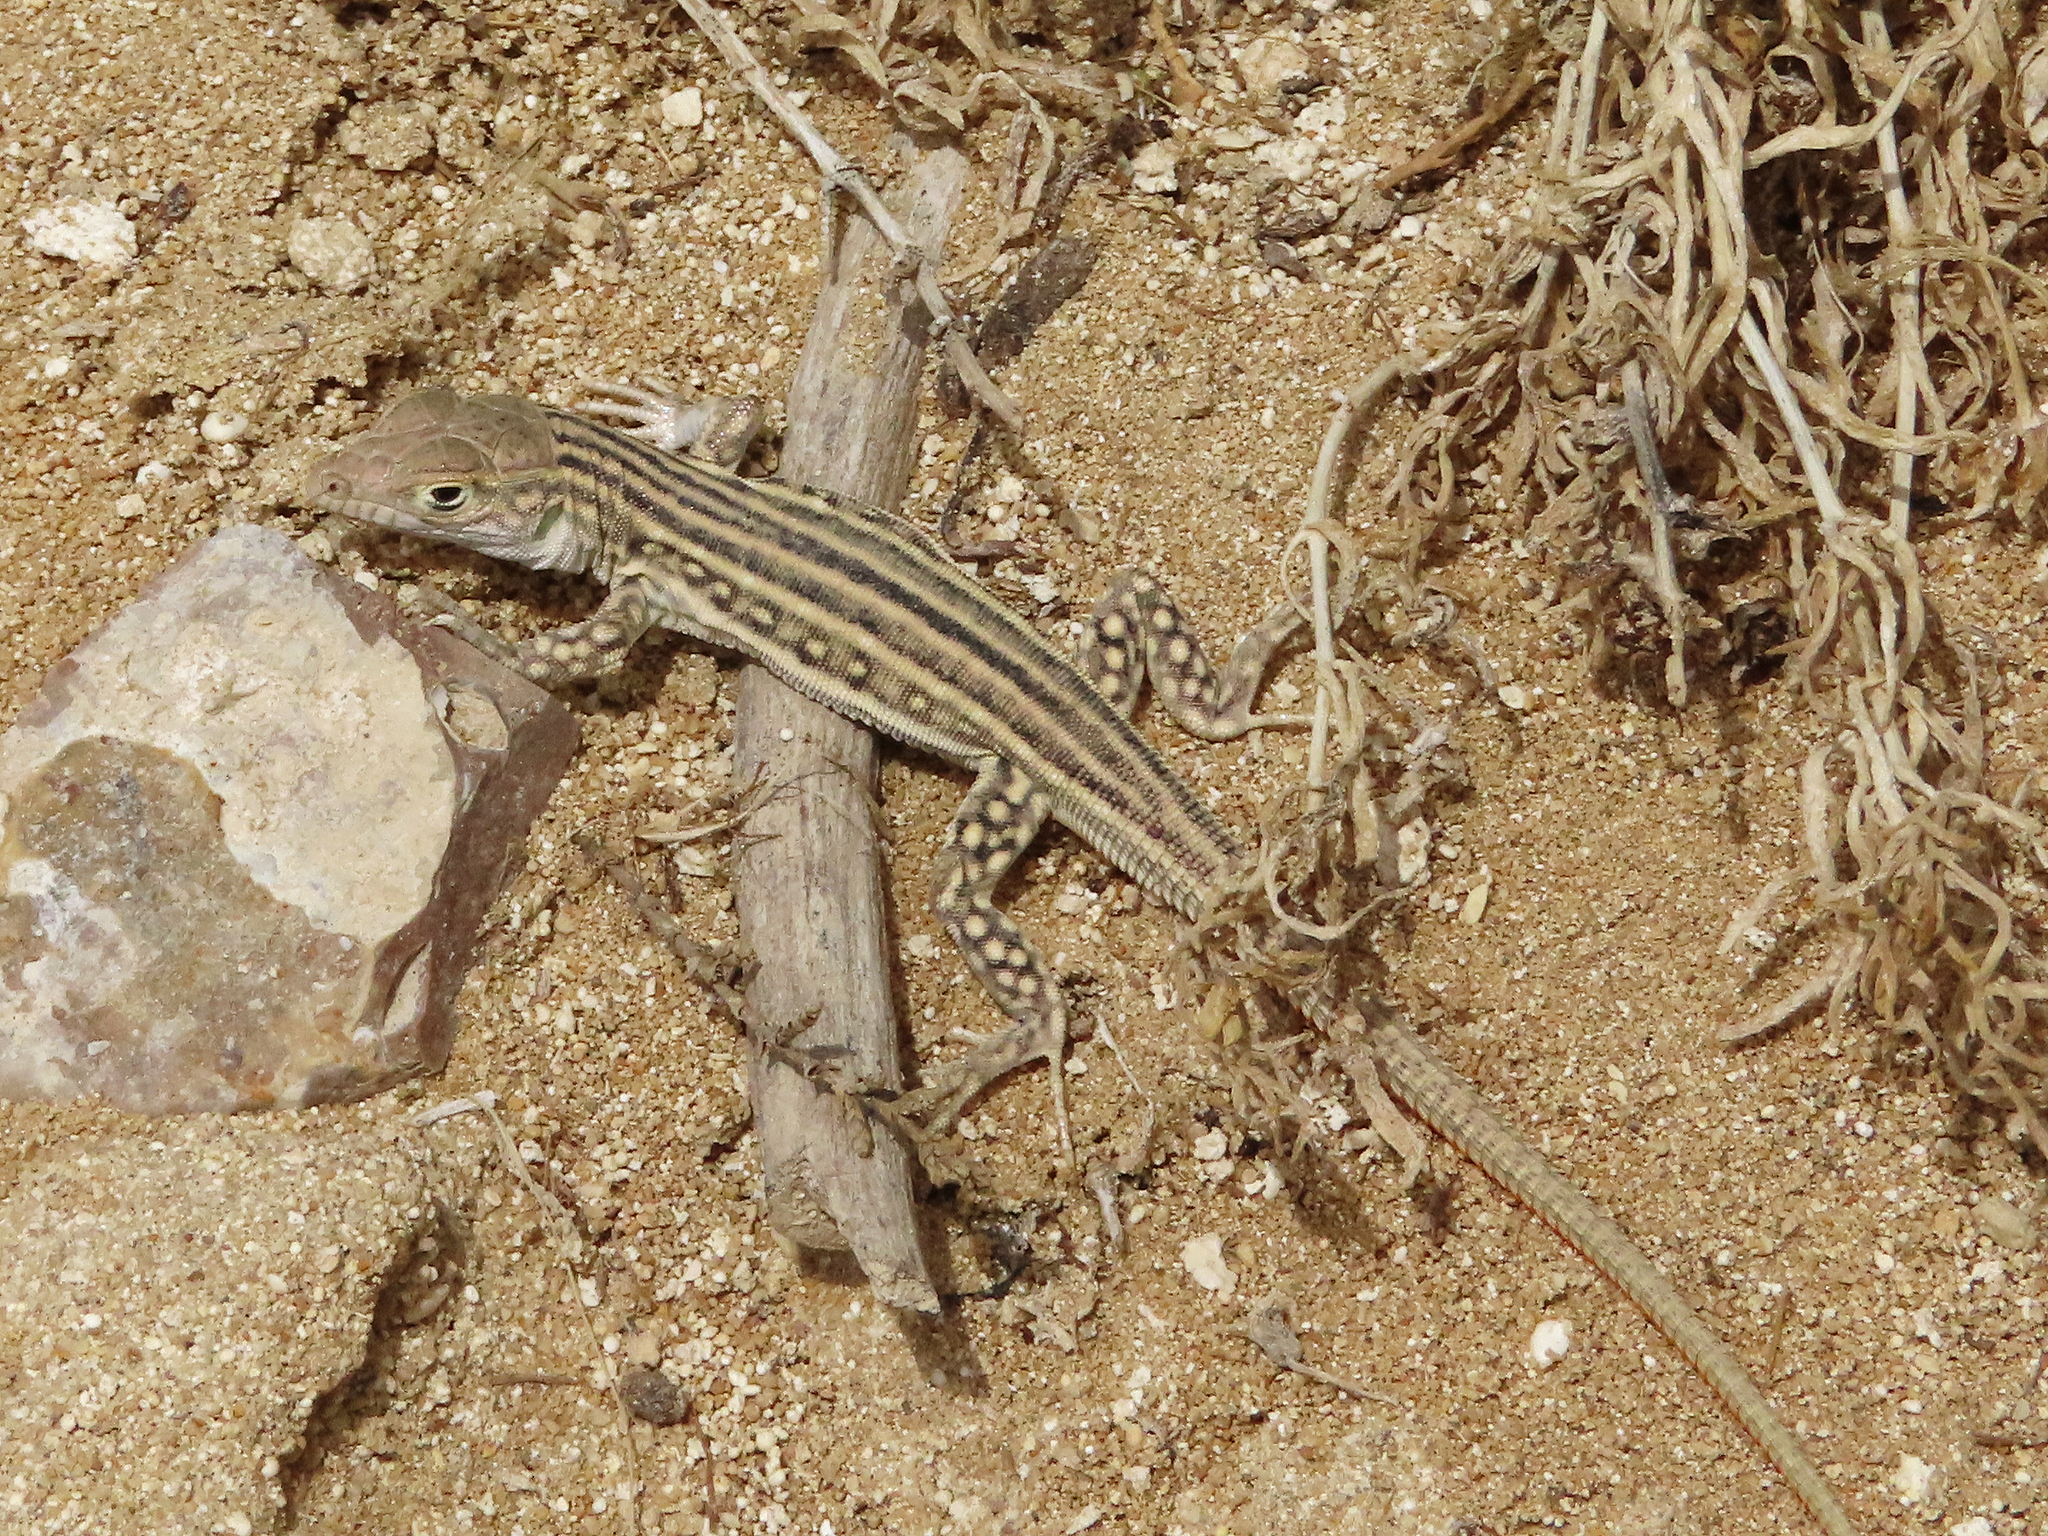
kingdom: Animalia
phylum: Chordata
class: Squamata
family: Lacertidae
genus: Eremias
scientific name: Eremias velox
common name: Central asian racerunner
